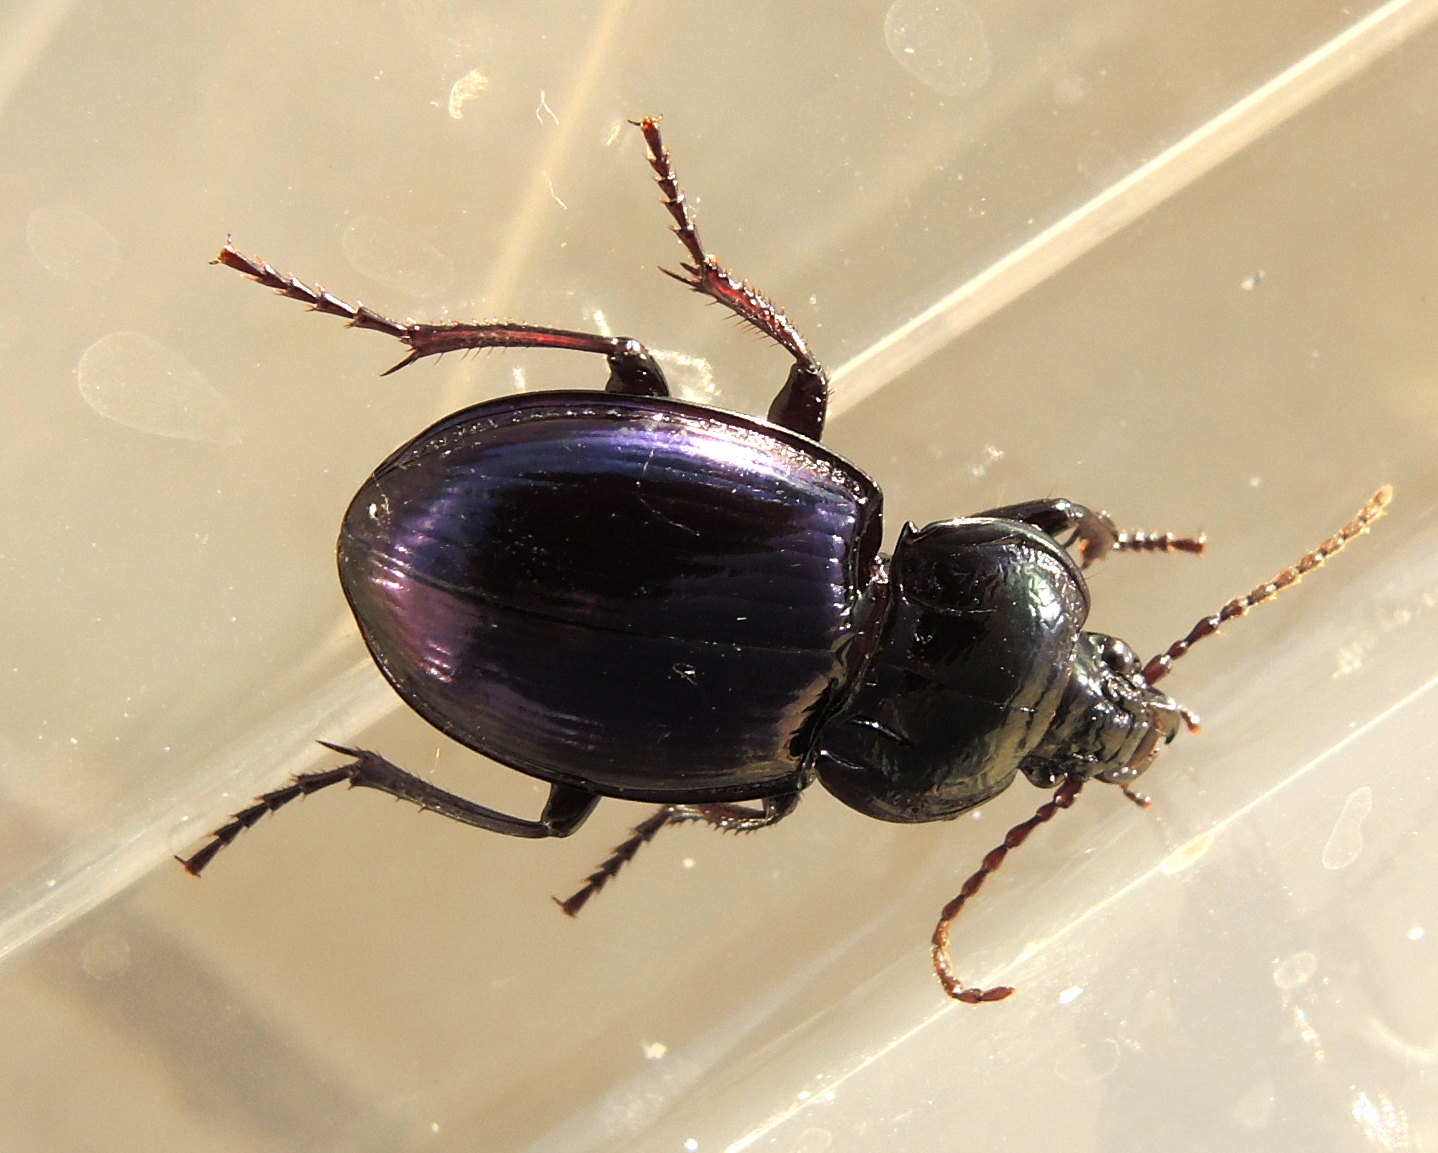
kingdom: Animalia
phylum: Arthropoda
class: Insecta
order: Coleoptera
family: Carabidae
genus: Myas
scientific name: Myas chalybaeus
